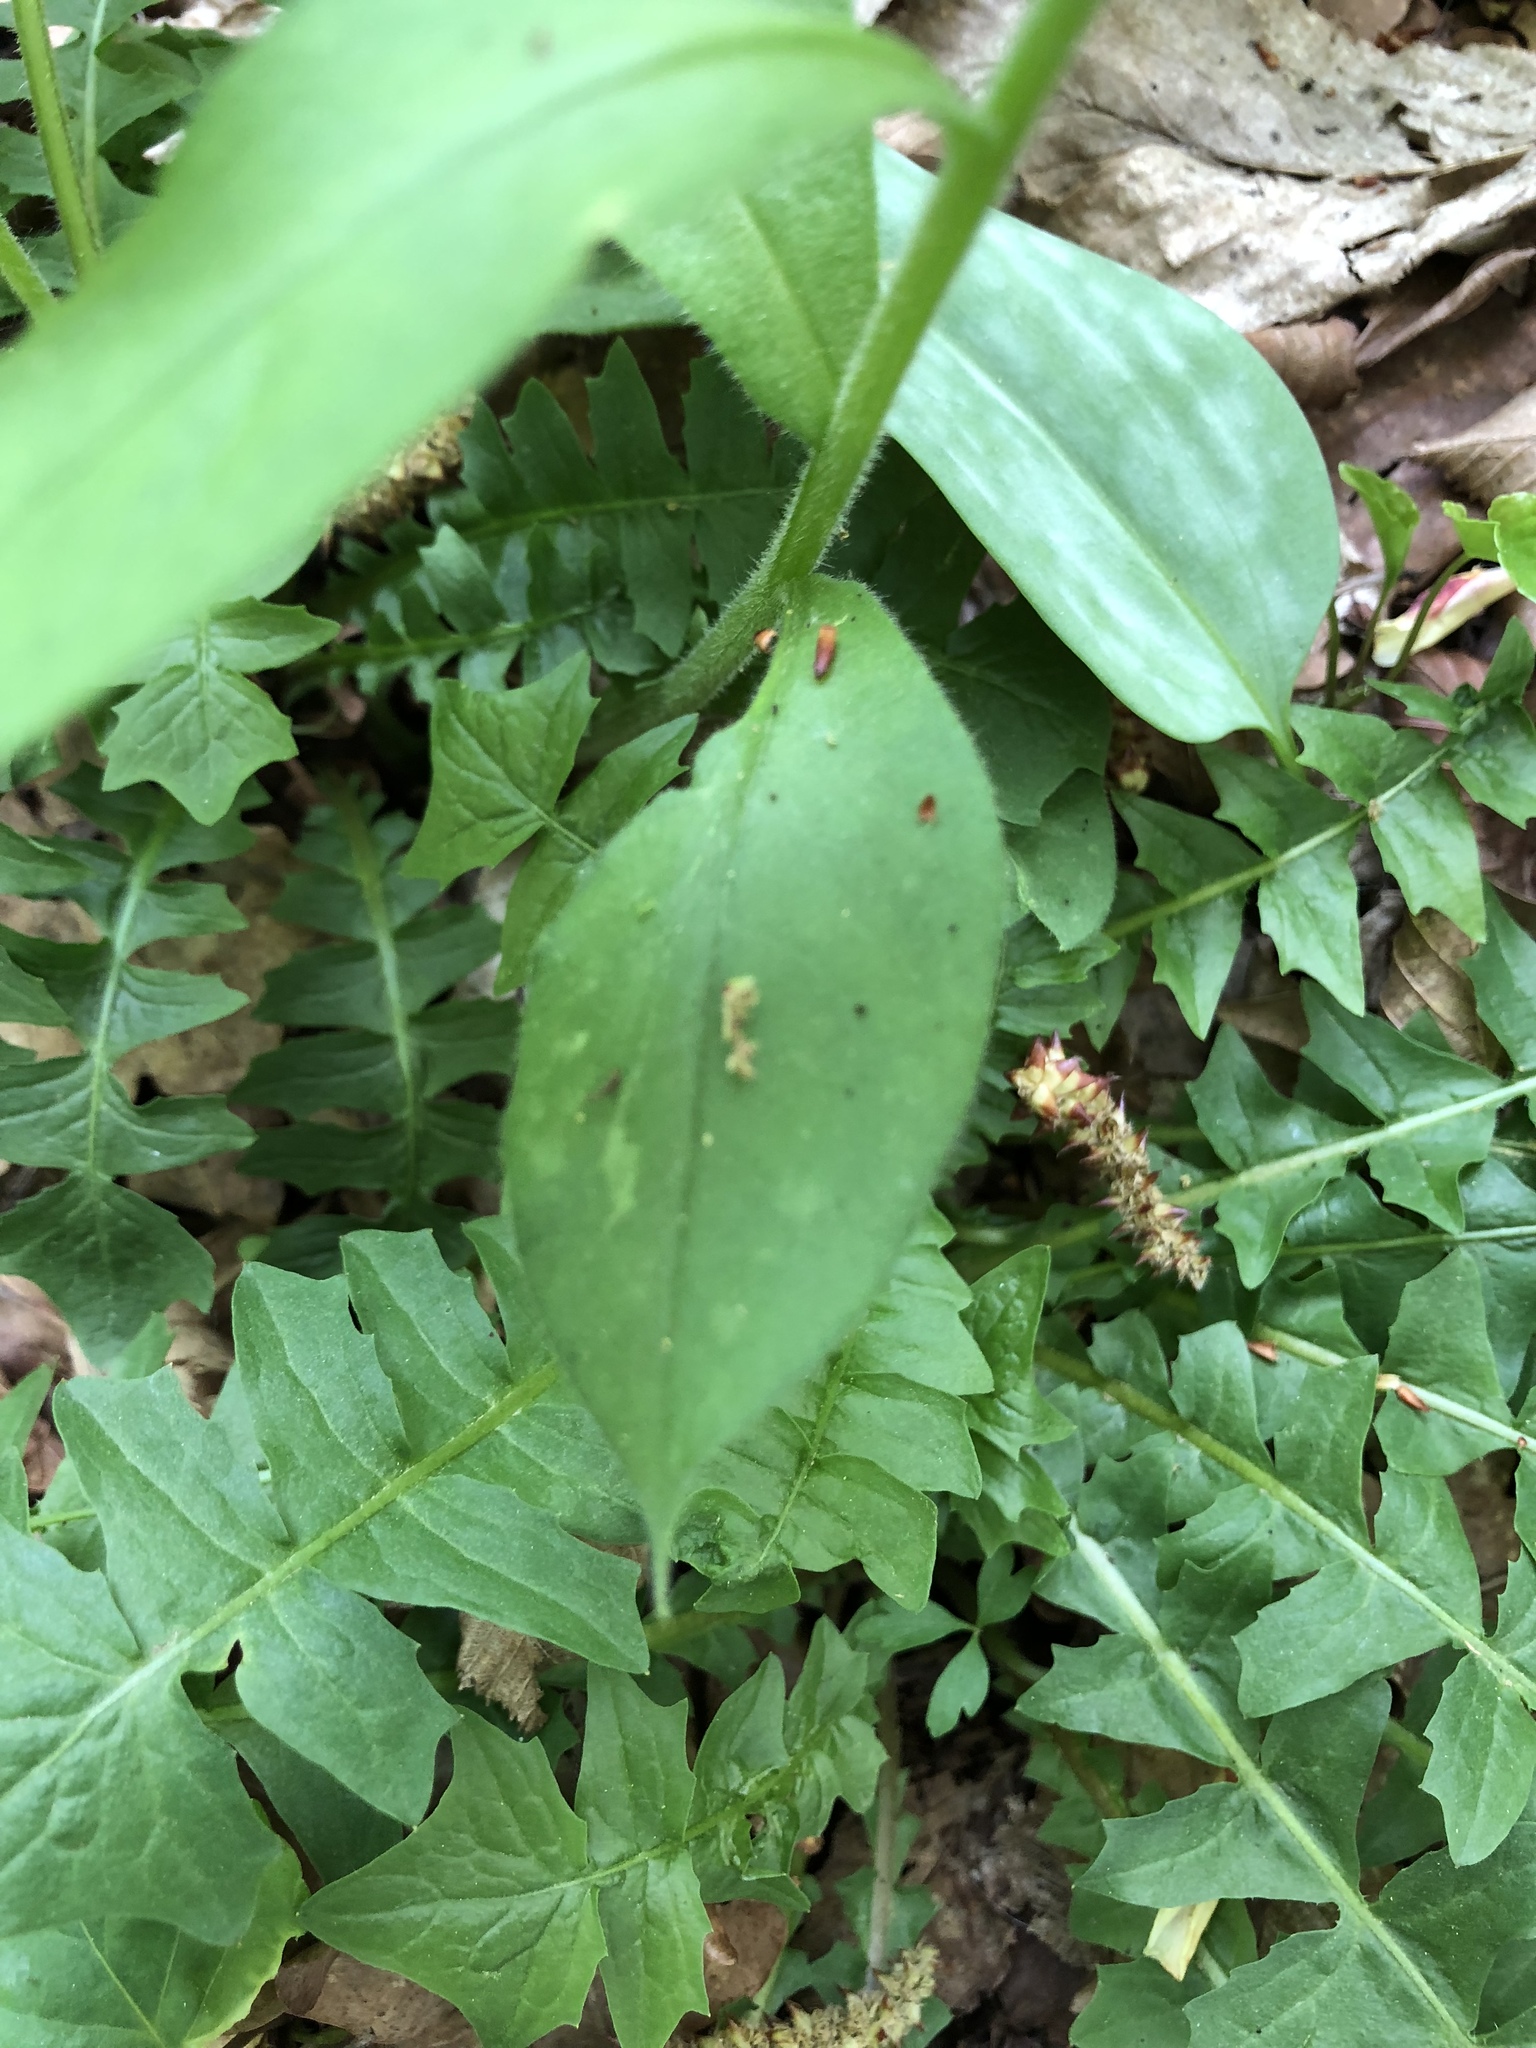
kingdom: Plantae
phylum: Tracheophyta
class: Magnoliopsida
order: Boraginales
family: Boraginaceae
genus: Pulmonaria
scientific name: Pulmonaria obscura
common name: Suffolk lungwort
